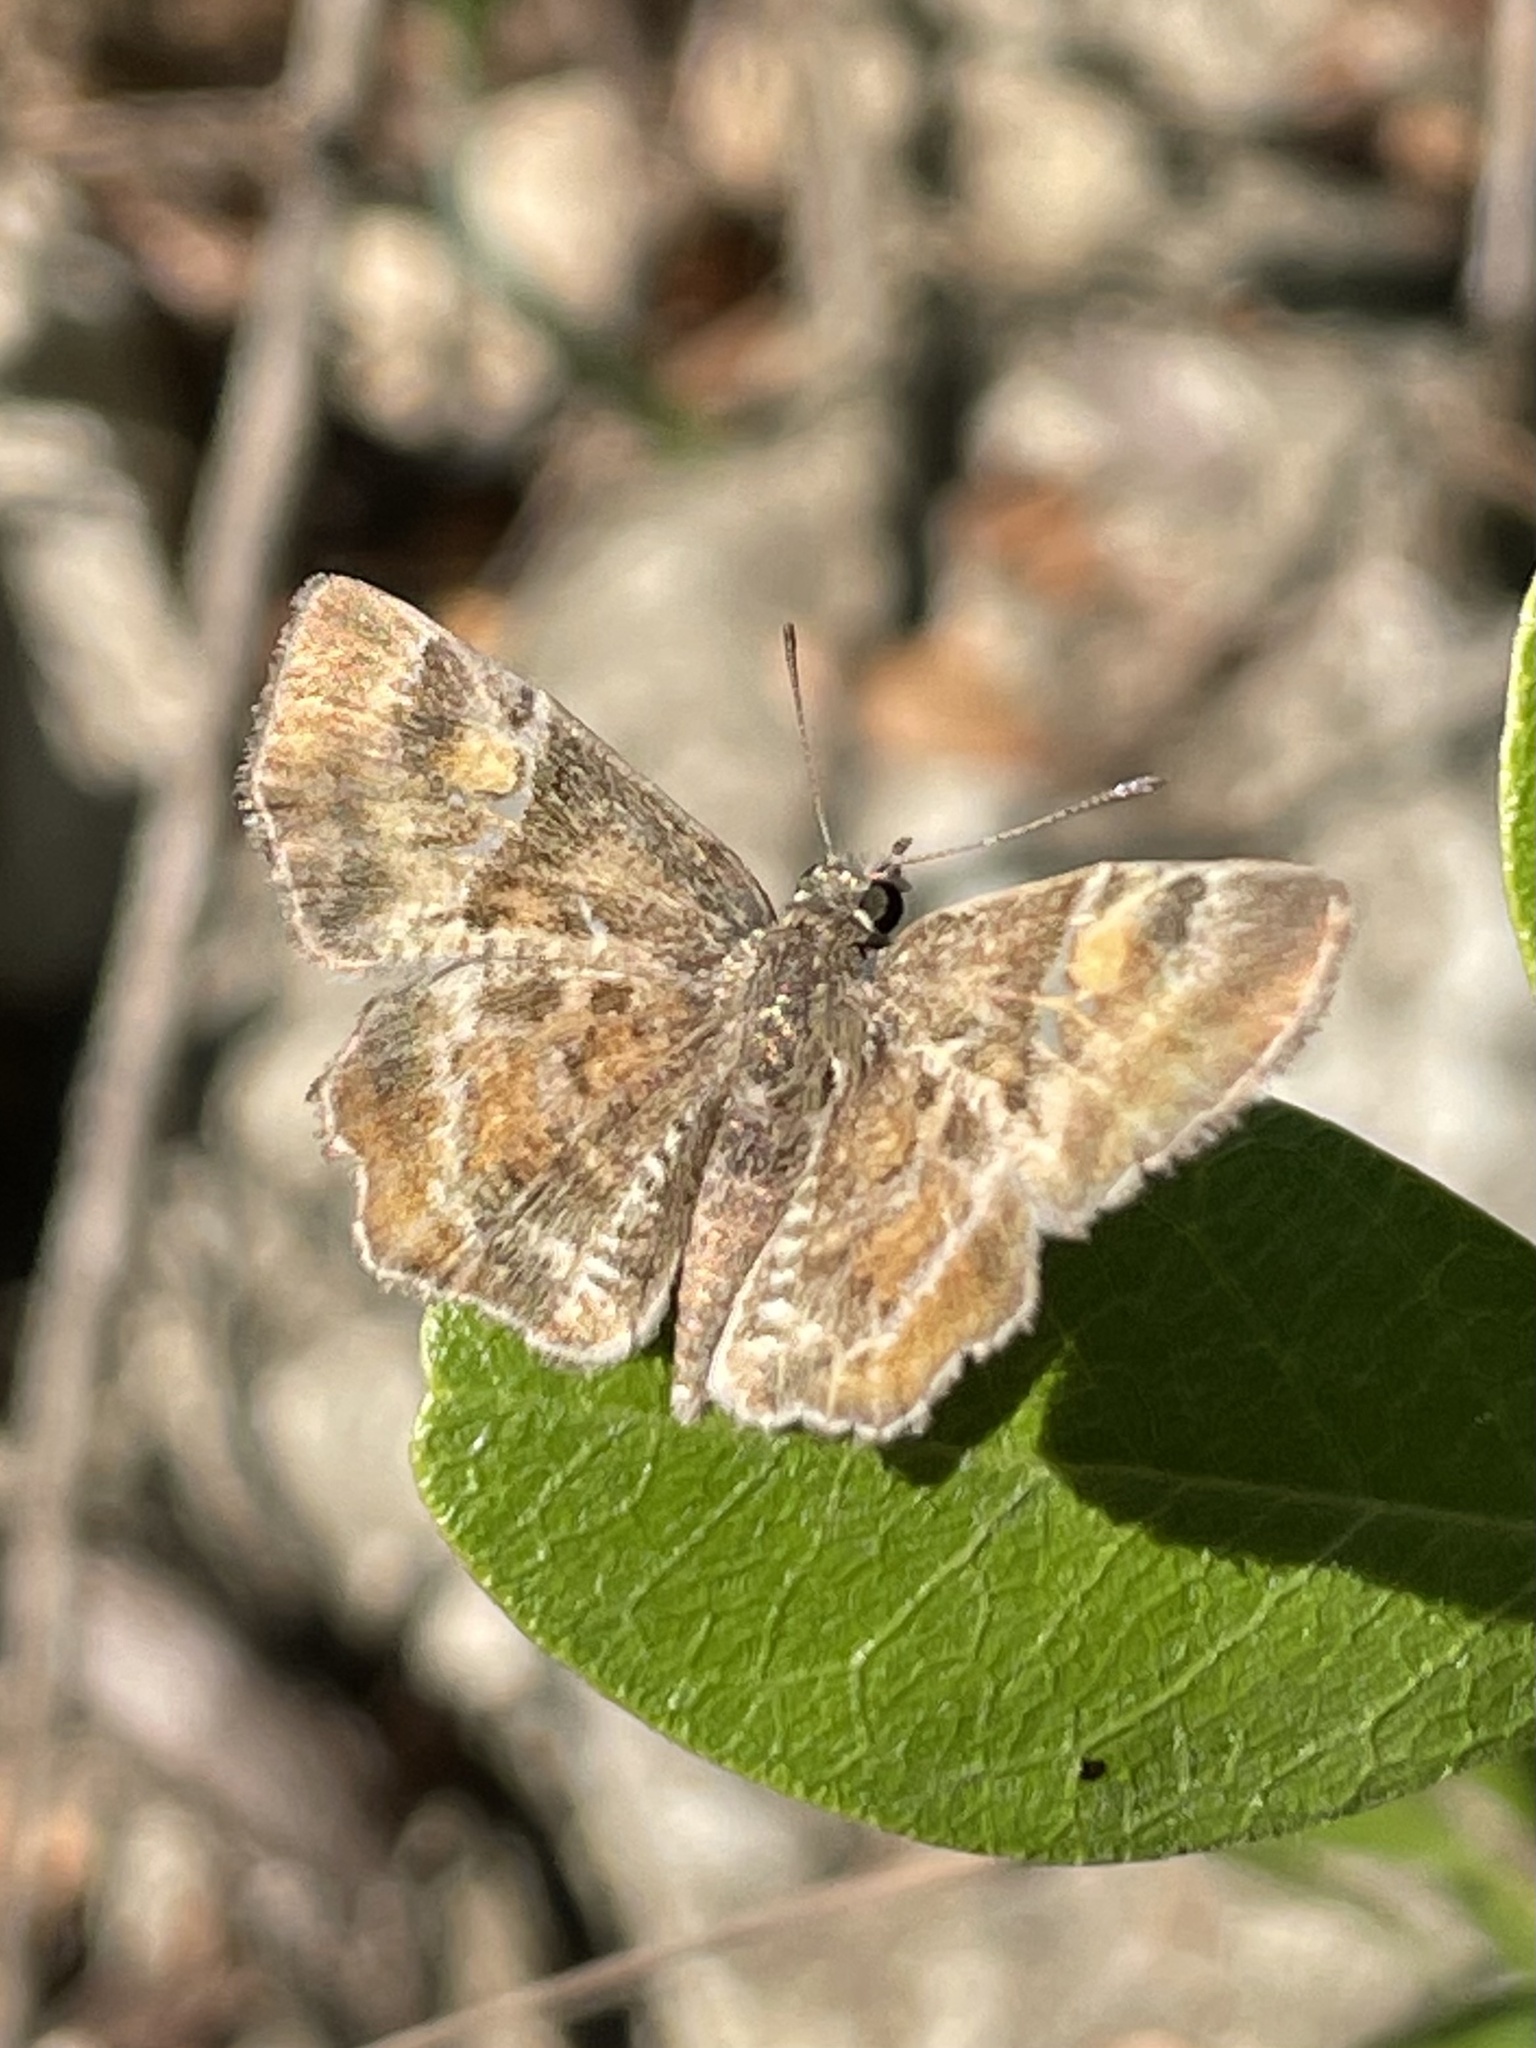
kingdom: Animalia
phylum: Arthropoda
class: Insecta
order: Lepidoptera
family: Hesperiidae
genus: Systasea
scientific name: Systasea pulverulenta
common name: Texas powdered skipper
